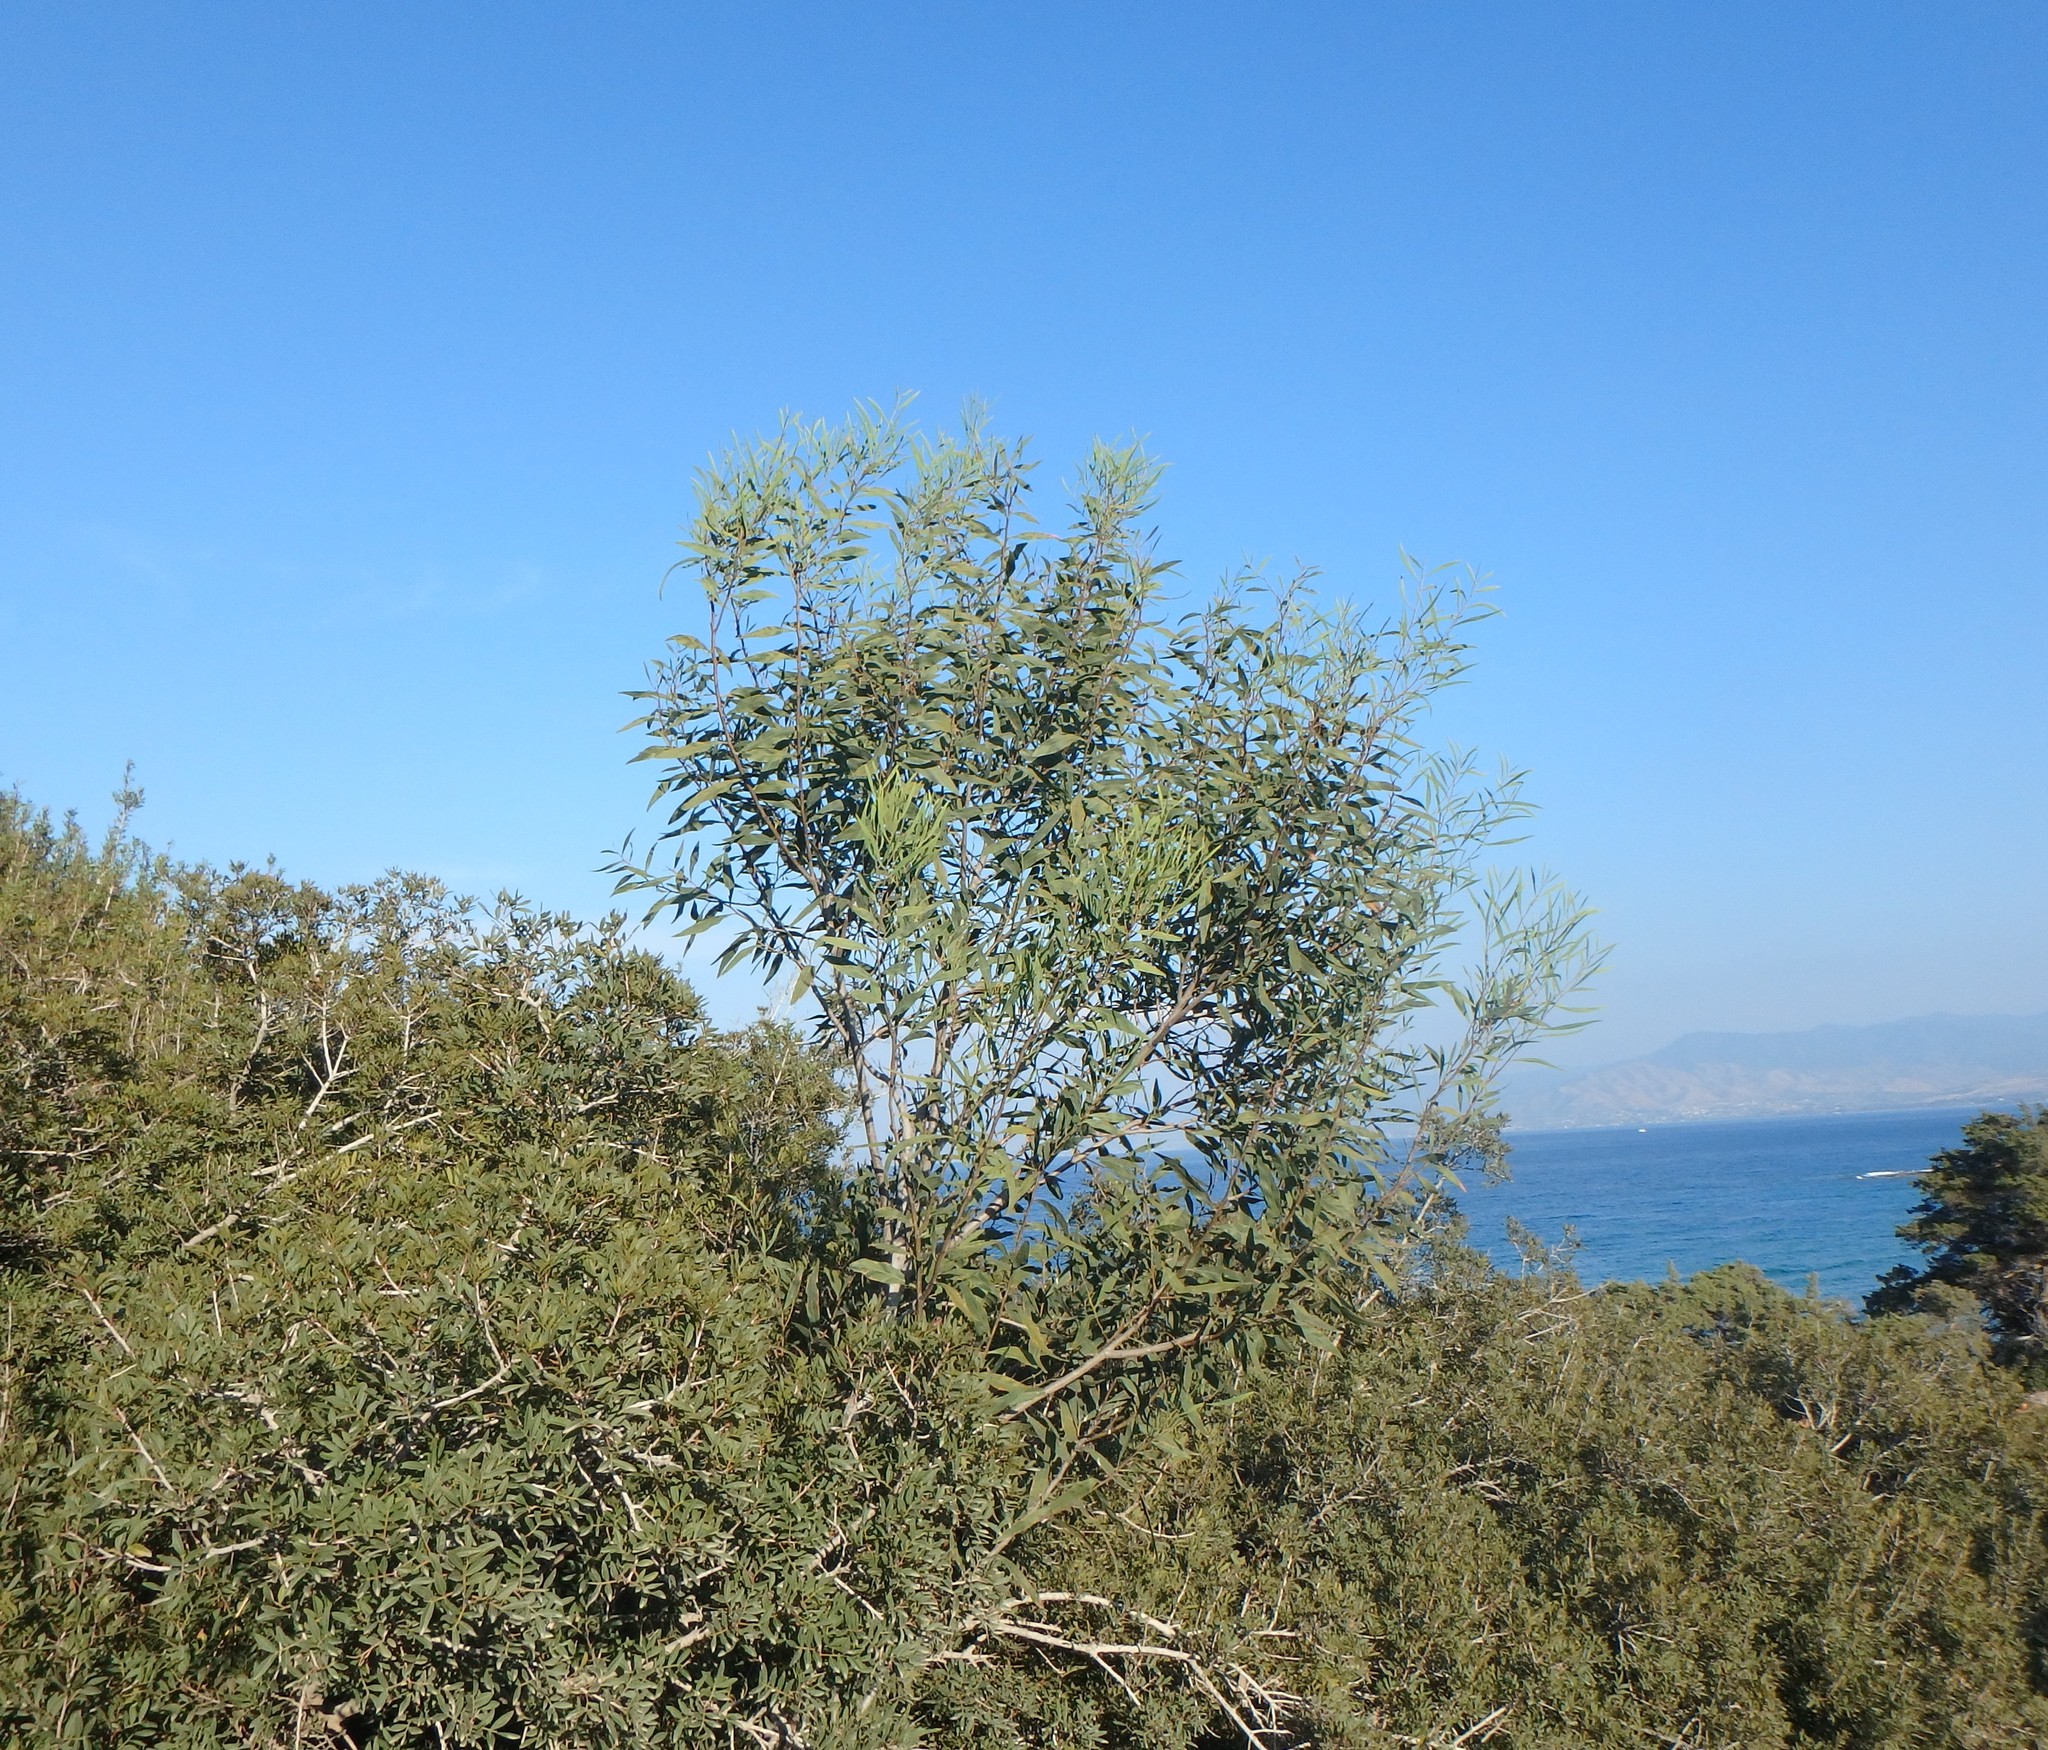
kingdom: Plantae
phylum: Tracheophyta
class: Magnoliopsida
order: Fabales
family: Fabaceae
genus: Acacia
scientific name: Acacia saligna
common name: Orange wattle
